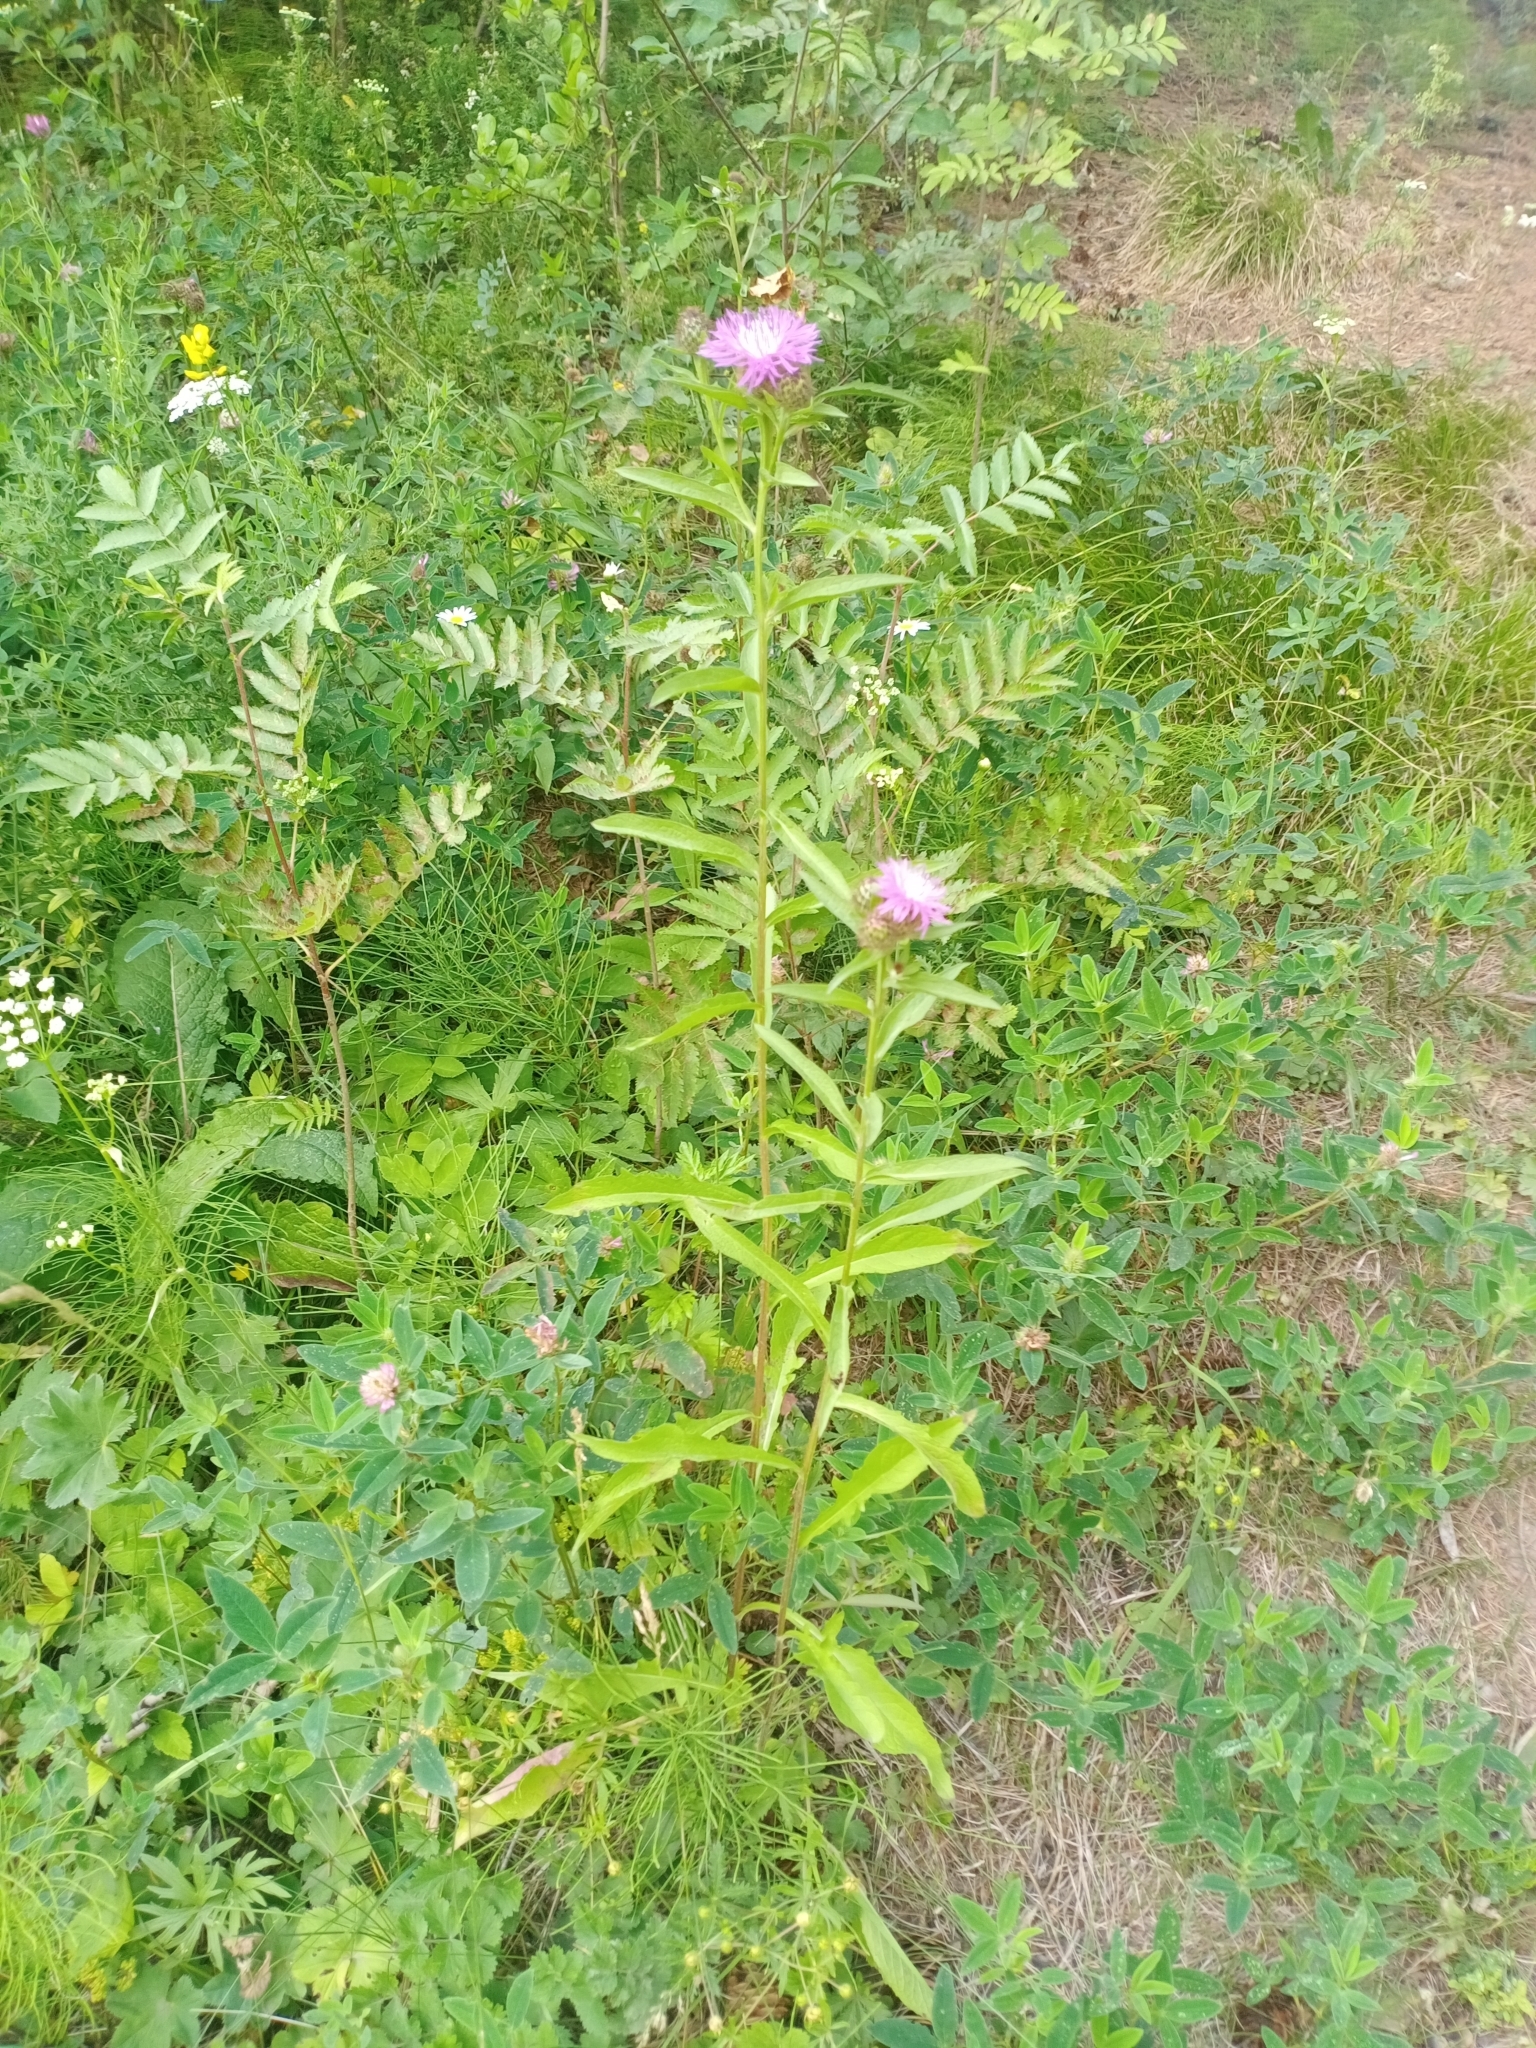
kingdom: Plantae
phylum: Tracheophyta
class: Magnoliopsida
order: Asterales
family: Asteraceae
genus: Centaurea
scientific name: Centaurea pseudophrygia
